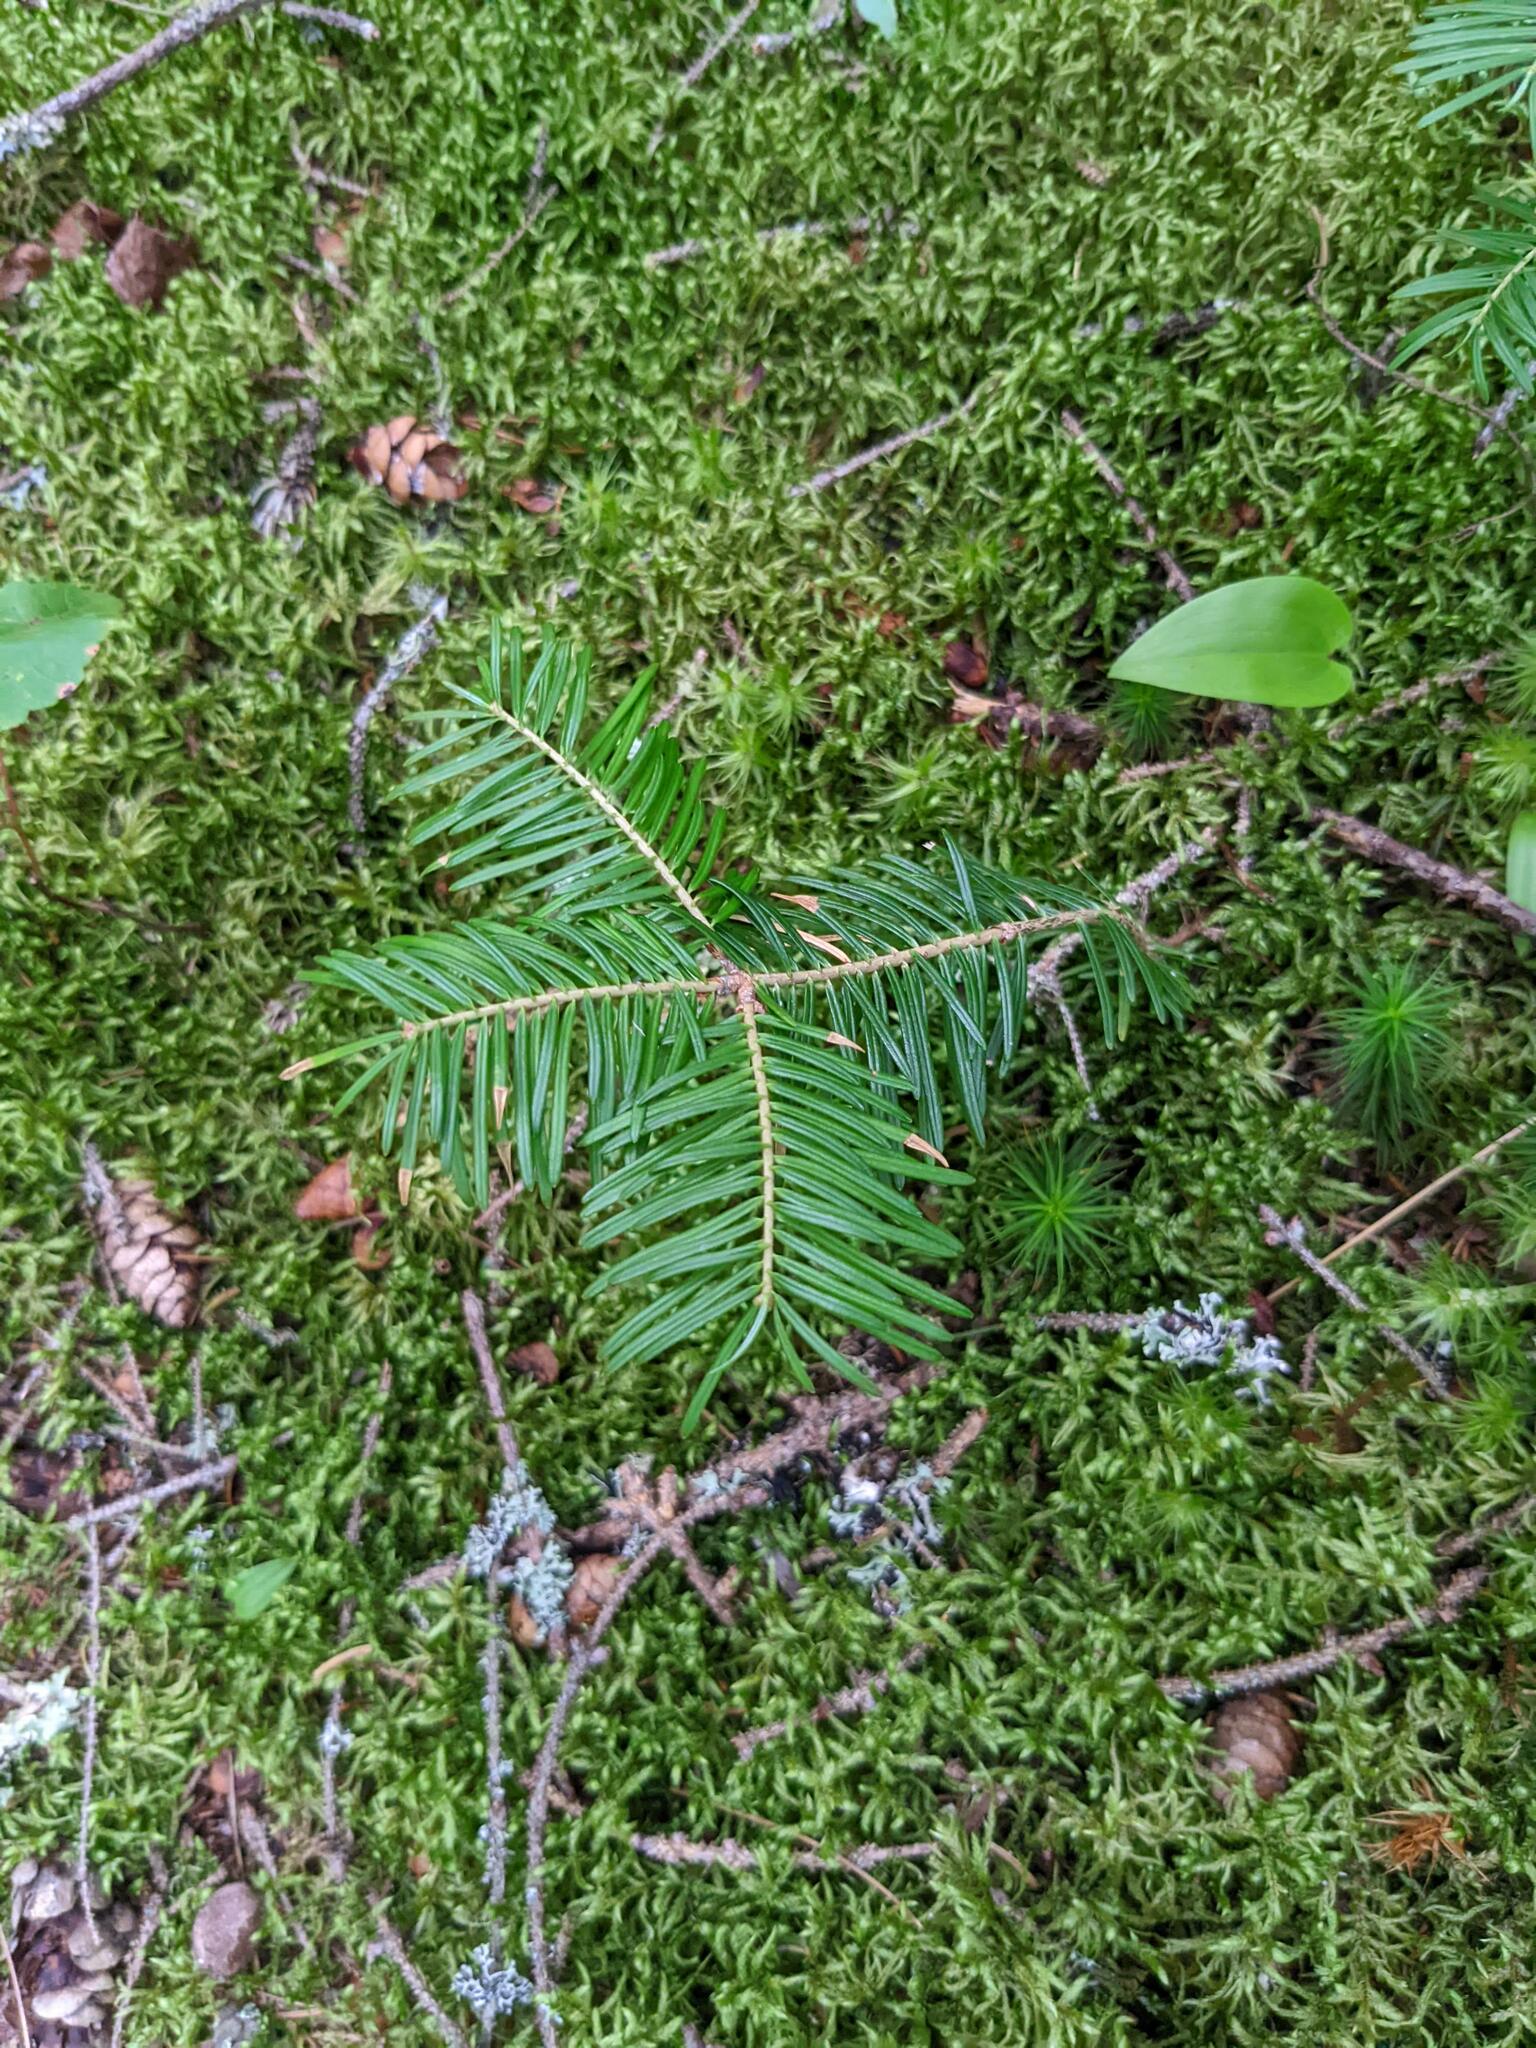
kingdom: Plantae
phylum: Tracheophyta
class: Pinopsida
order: Pinales
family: Pinaceae
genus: Abies
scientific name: Abies balsamea
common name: Balsam fir
